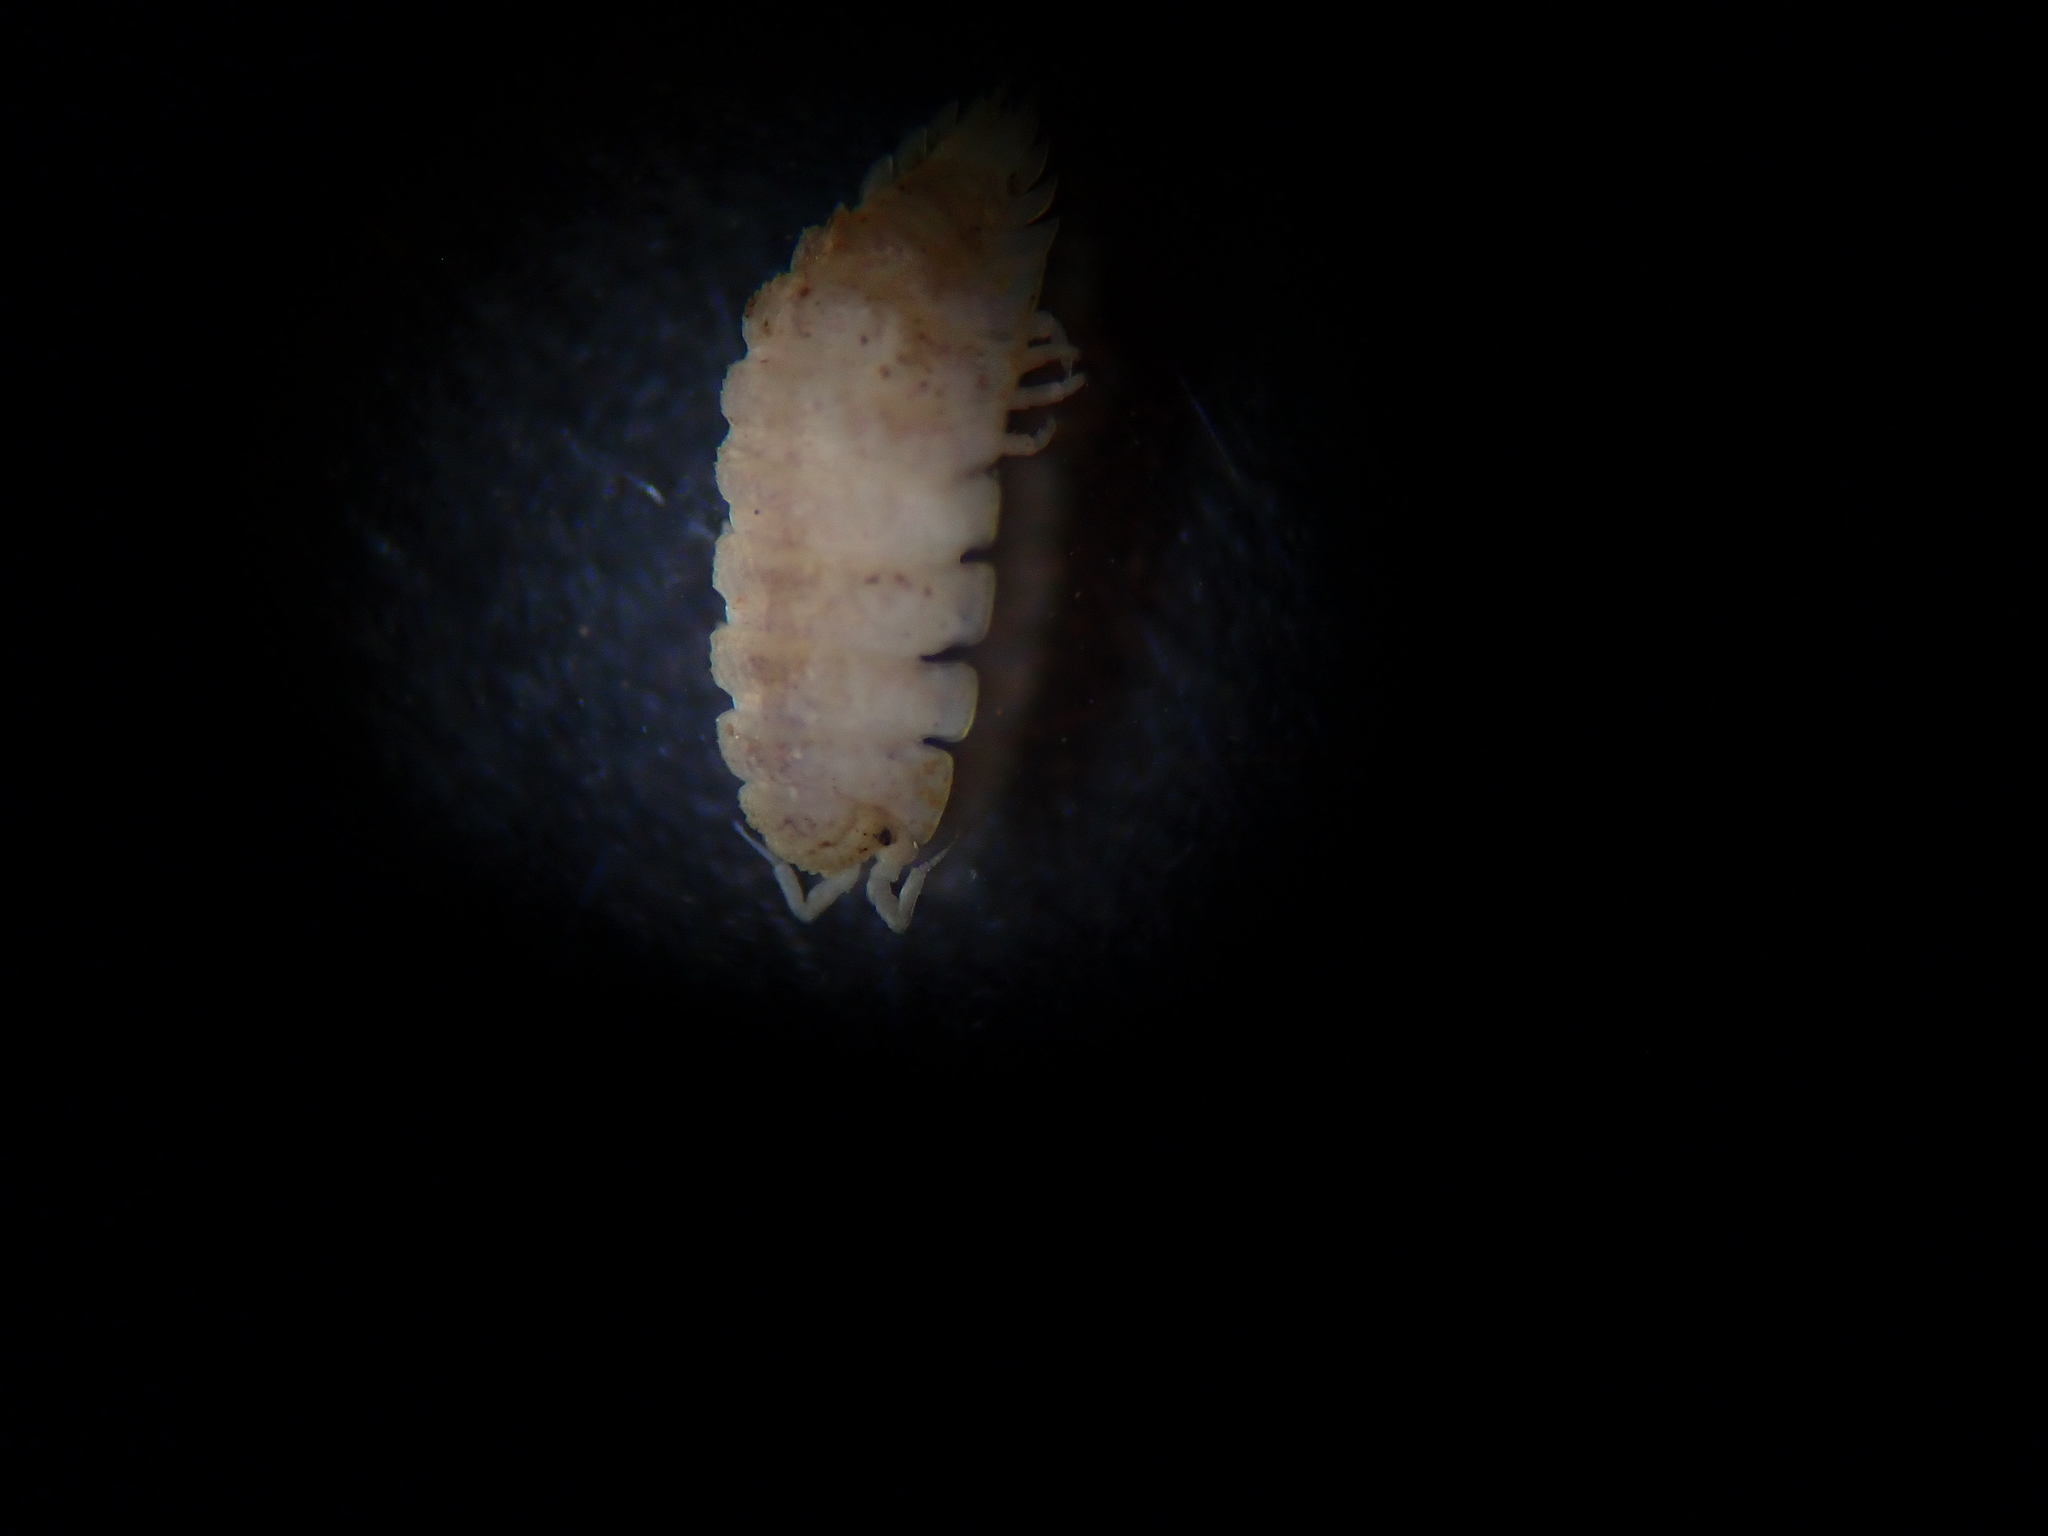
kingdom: Animalia
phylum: Arthropoda
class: Malacostraca
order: Isopoda
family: Trichoniscidae
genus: Haplophthalmus
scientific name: Haplophthalmus danicus
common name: Pillbug
